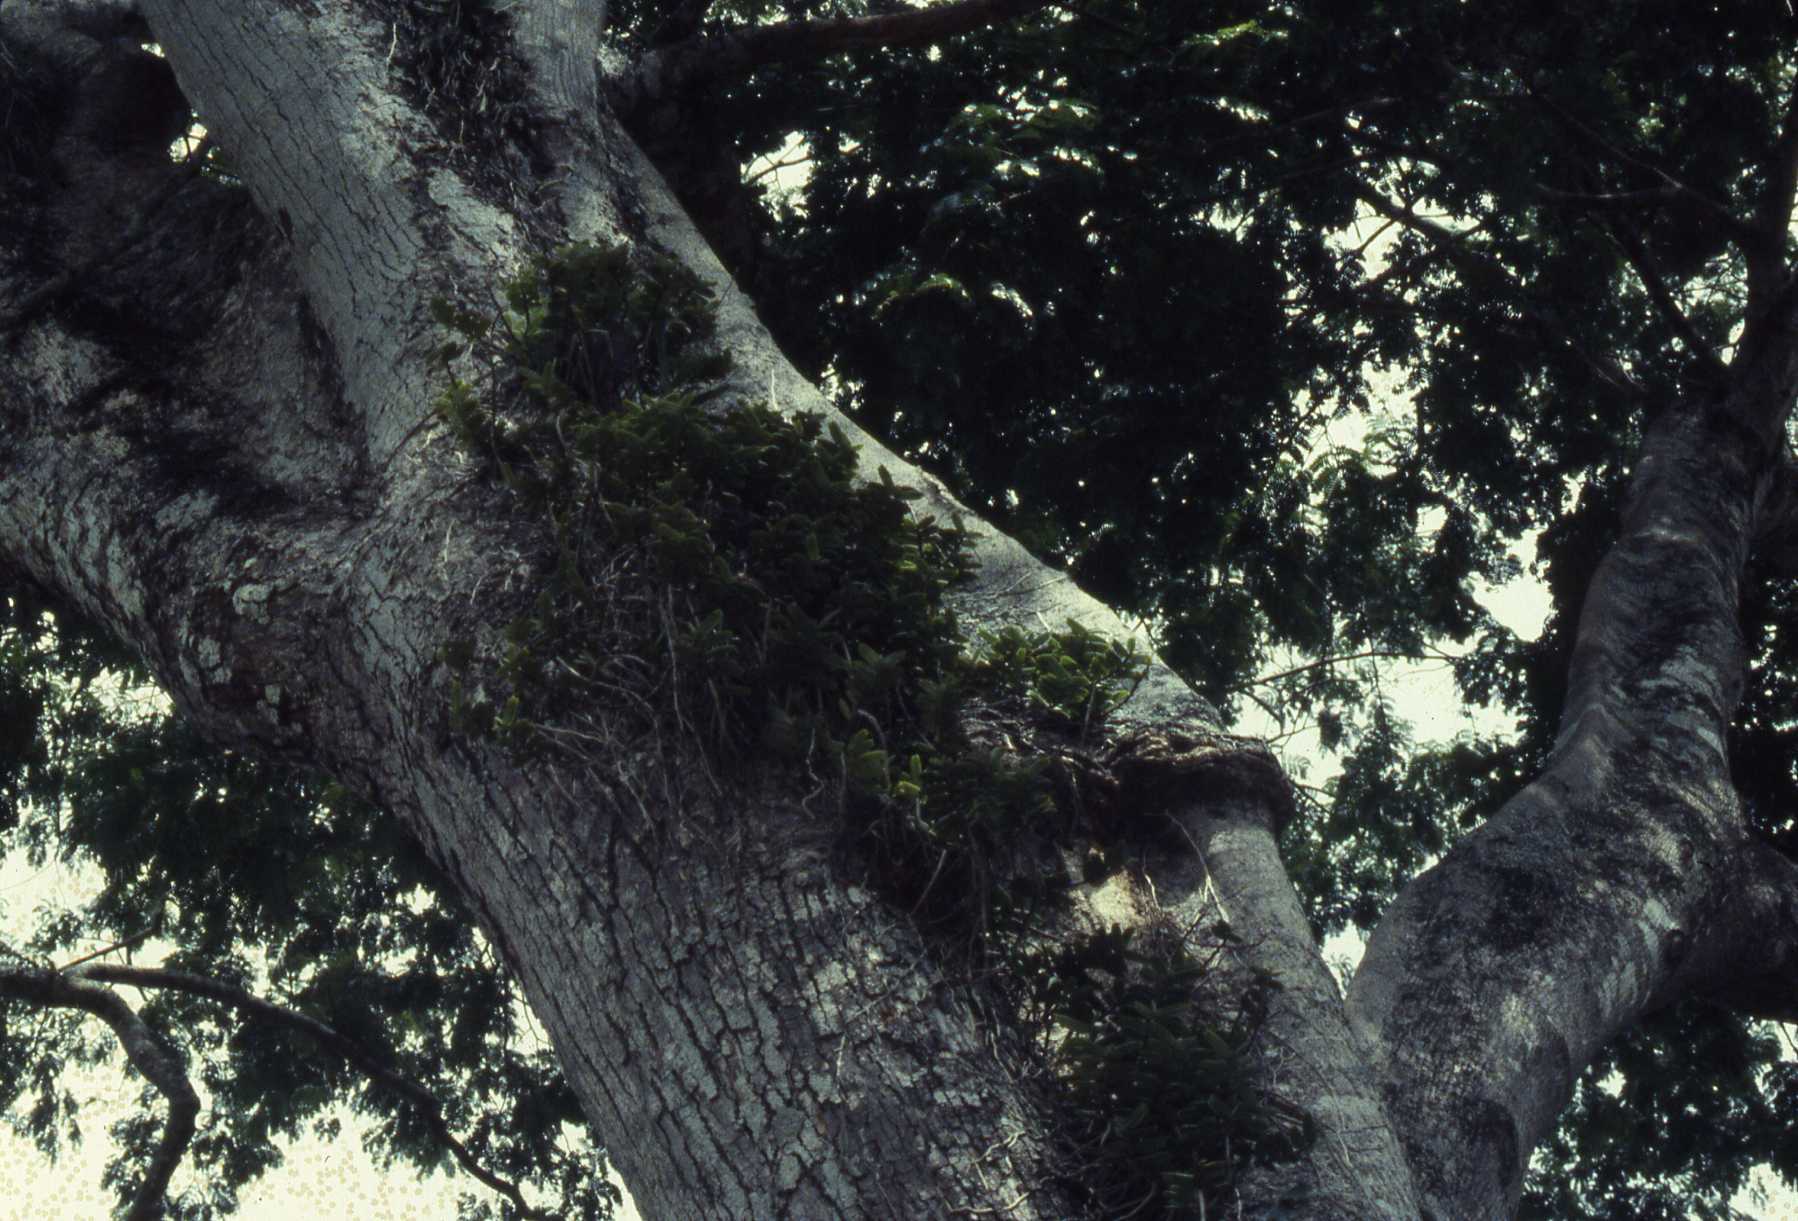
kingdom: Plantae
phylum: Tracheophyta
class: Liliopsida
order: Asparagales
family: Orchidaceae
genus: Calyptrochilum
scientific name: Calyptrochilum christyanum
